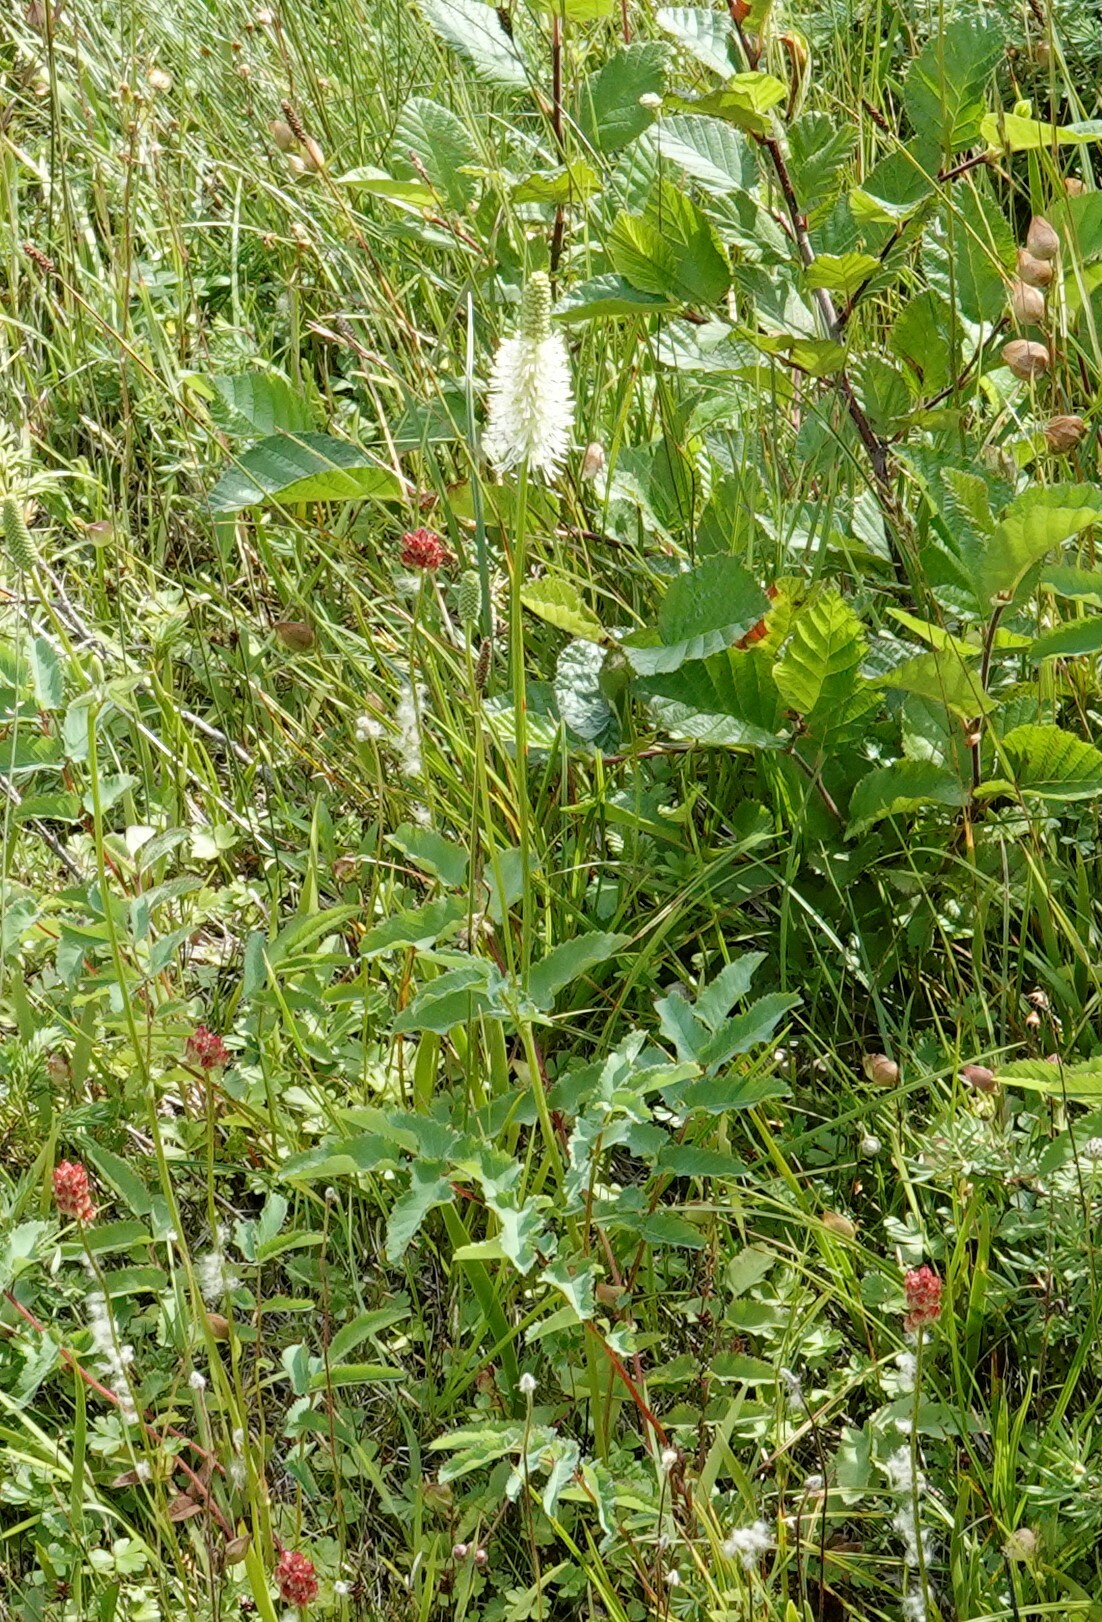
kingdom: Plantae
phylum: Tracheophyta
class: Magnoliopsida
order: Rosales
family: Rosaceae
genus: Sanguisorba
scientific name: Sanguisorba canadensis
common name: White burnet
